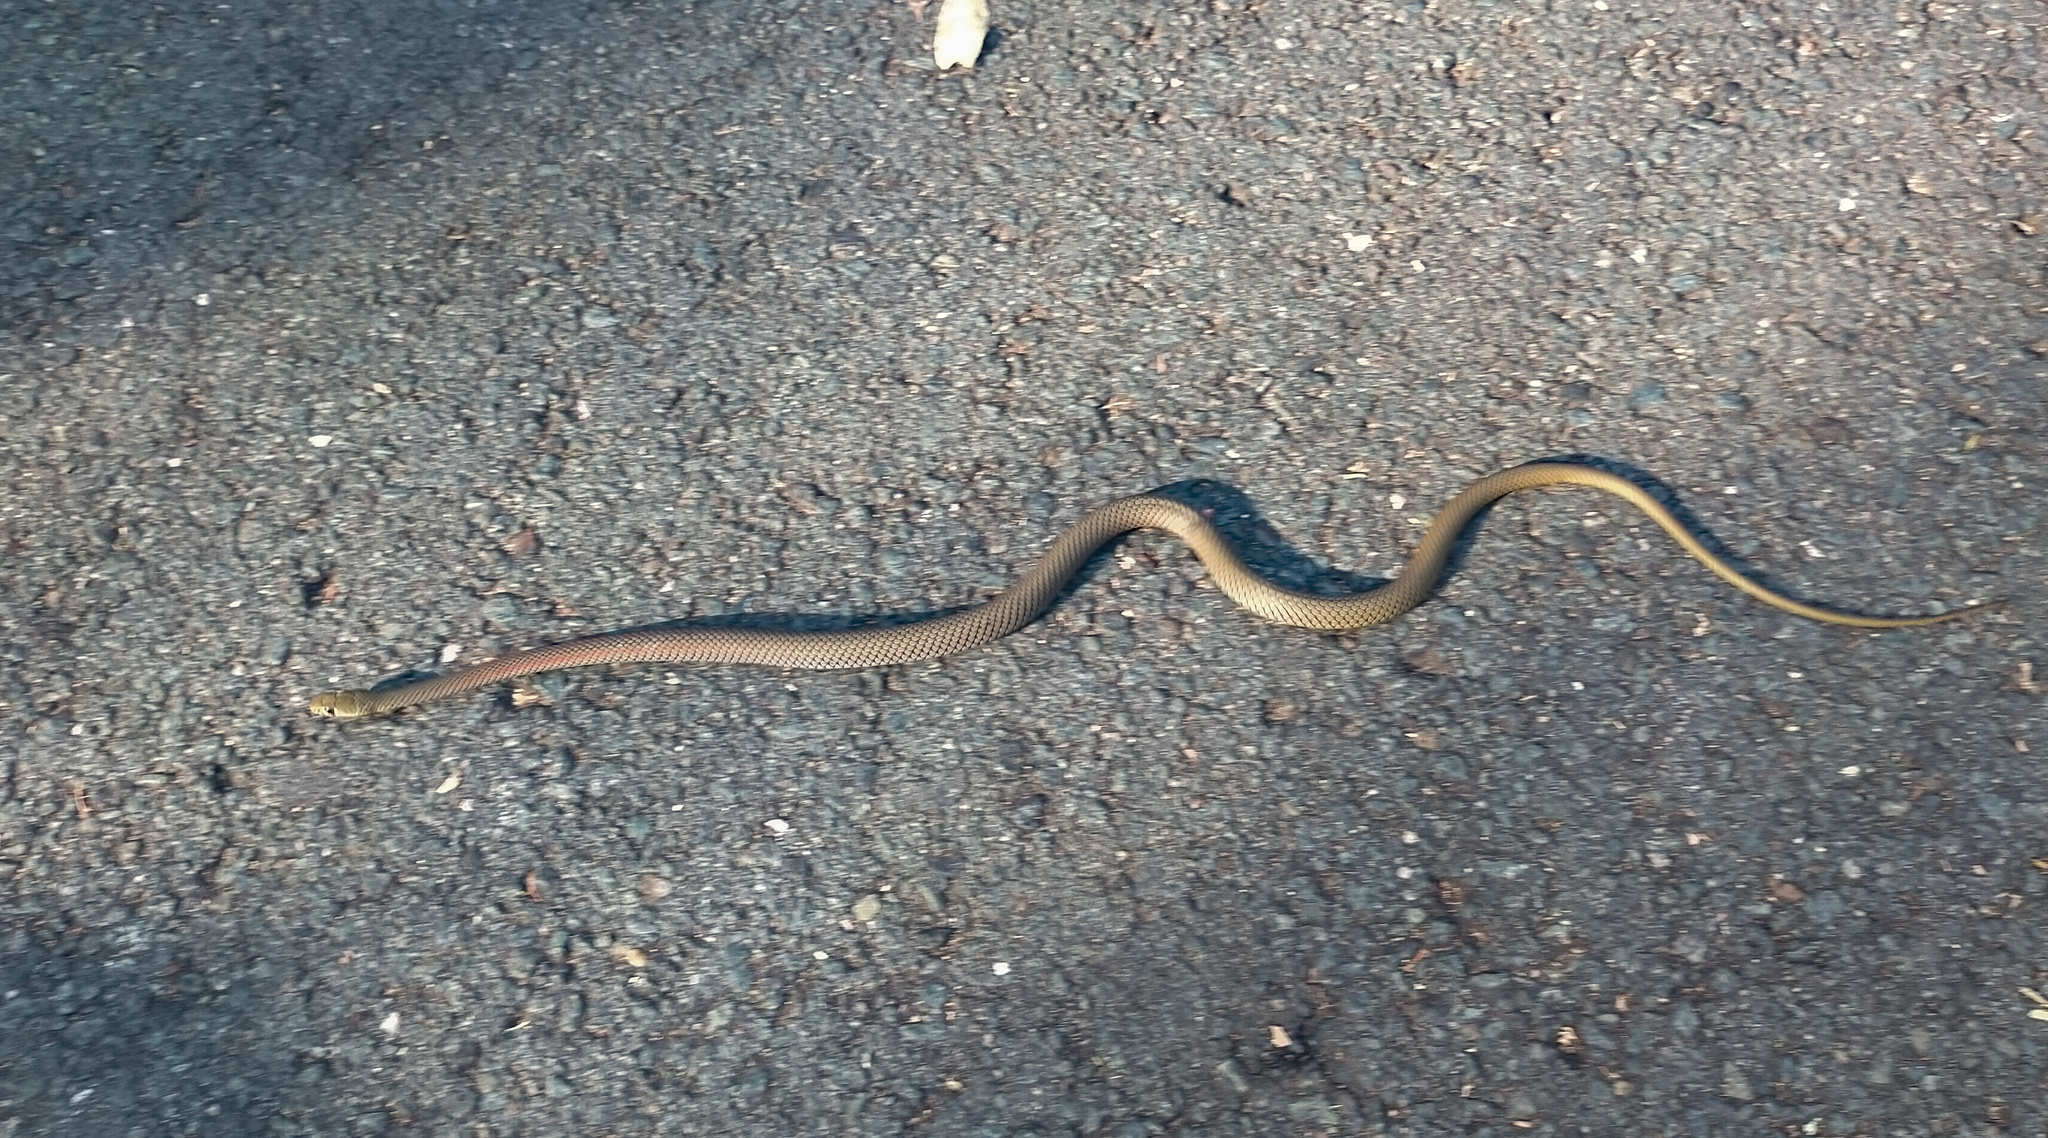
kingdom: Animalia
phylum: Chordata
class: Squamata
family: Elapidae
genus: Demansia
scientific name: Demansia psammophis
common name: Yellow-faced whip snake
